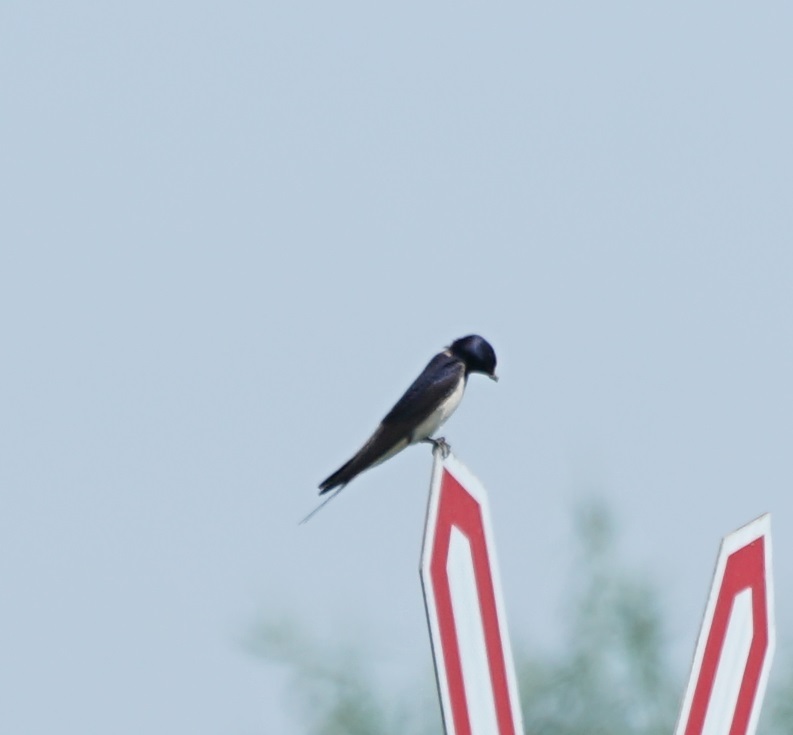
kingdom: Animalia
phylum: Chordata
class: Aves
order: Passeriformes
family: Hirundinidae
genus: Hirundo
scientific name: Hirundo rustica
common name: Barn swallow
